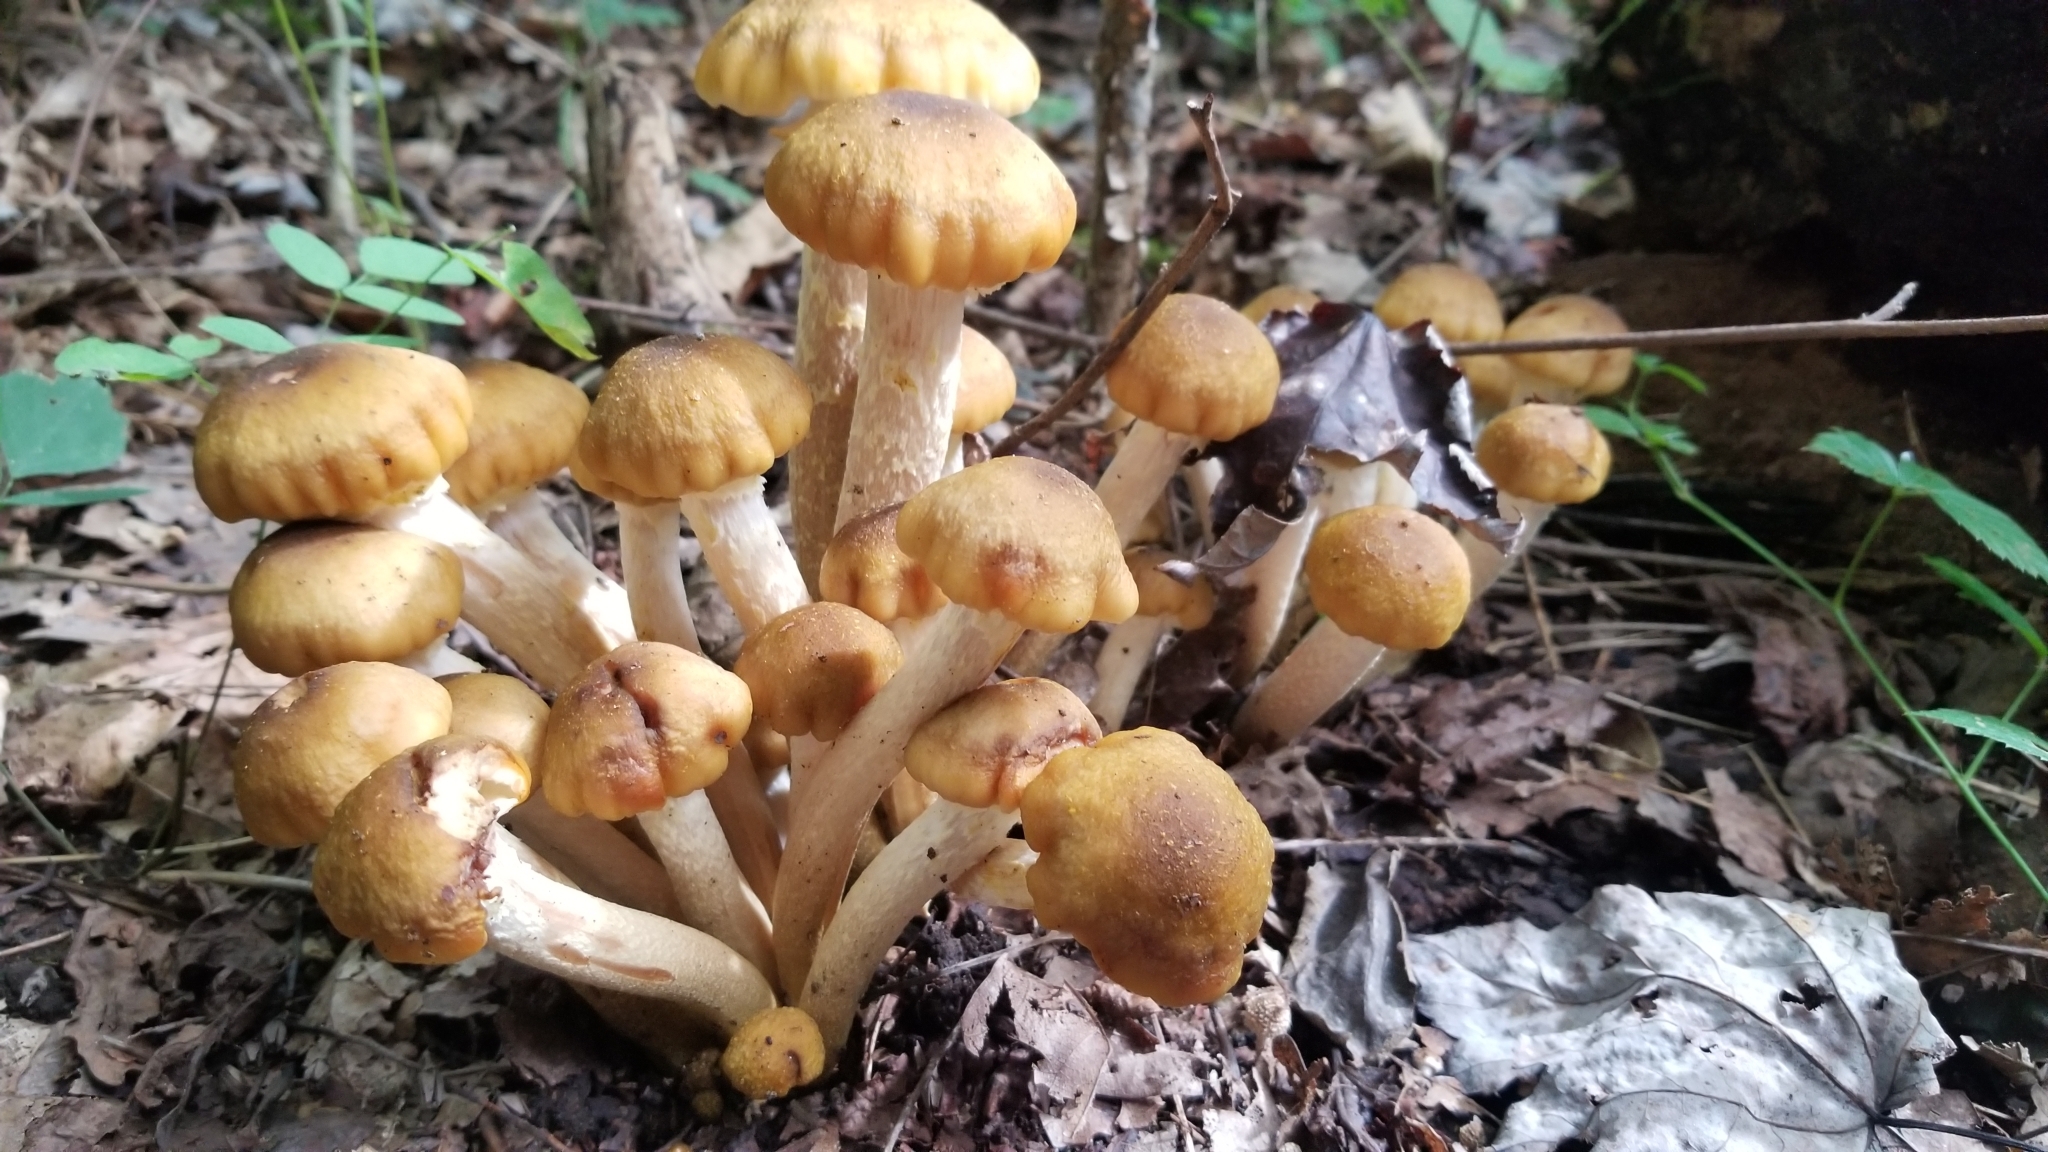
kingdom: Fungi
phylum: Basidiomycota
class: Agaricomycetes
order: Agaricales
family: Physalacriaceae
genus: Armillaria
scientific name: Armillaria mellea
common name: Honey fungus
